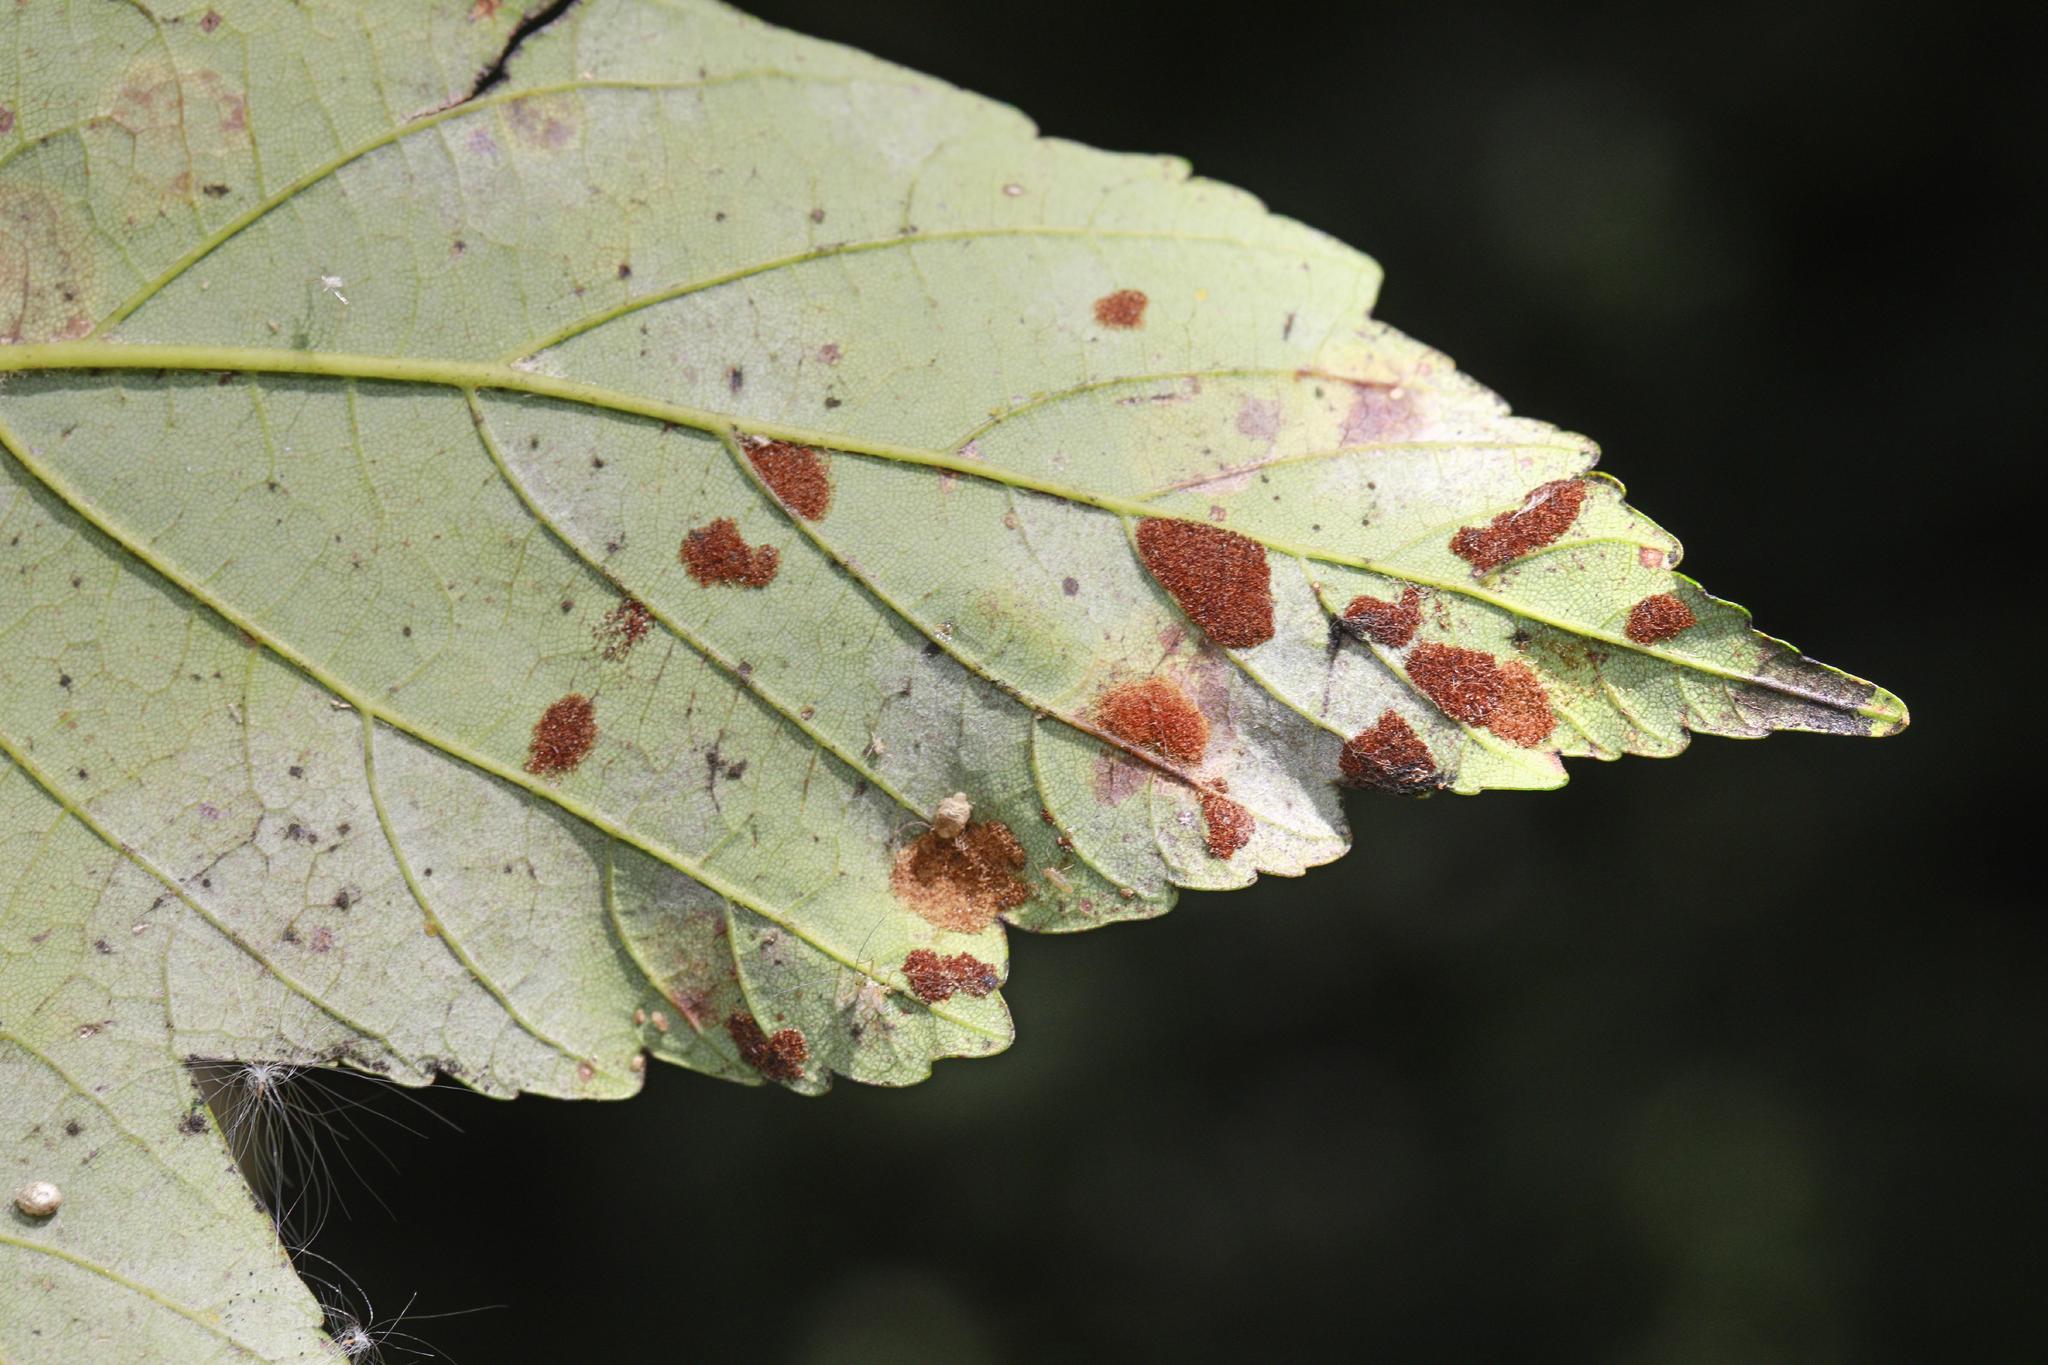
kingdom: Animalia
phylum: Arthropoda
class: Arachnida
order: Trombidiformes
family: Eriophyidae
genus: Aceria
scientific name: Aceria pseudoplatani
